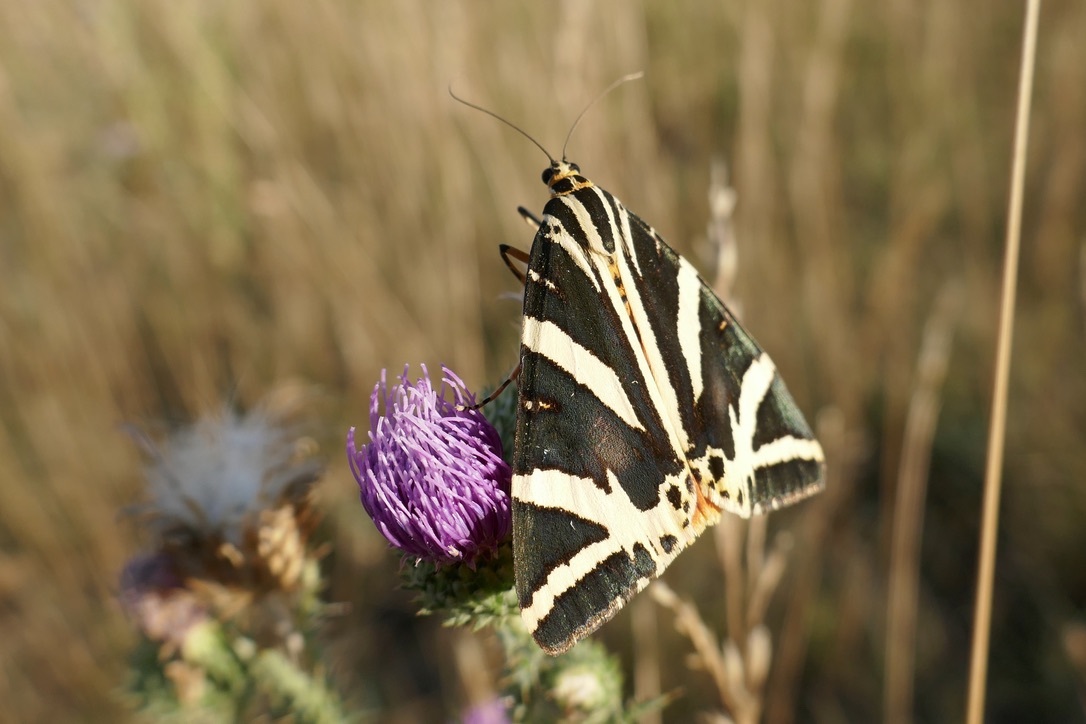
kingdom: Animalia
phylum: Arthropoda
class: Insecta
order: Lepidoptera
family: Erebidae
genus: Euplagia
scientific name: Euplagia quadripunctaria
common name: Jersey tiger
